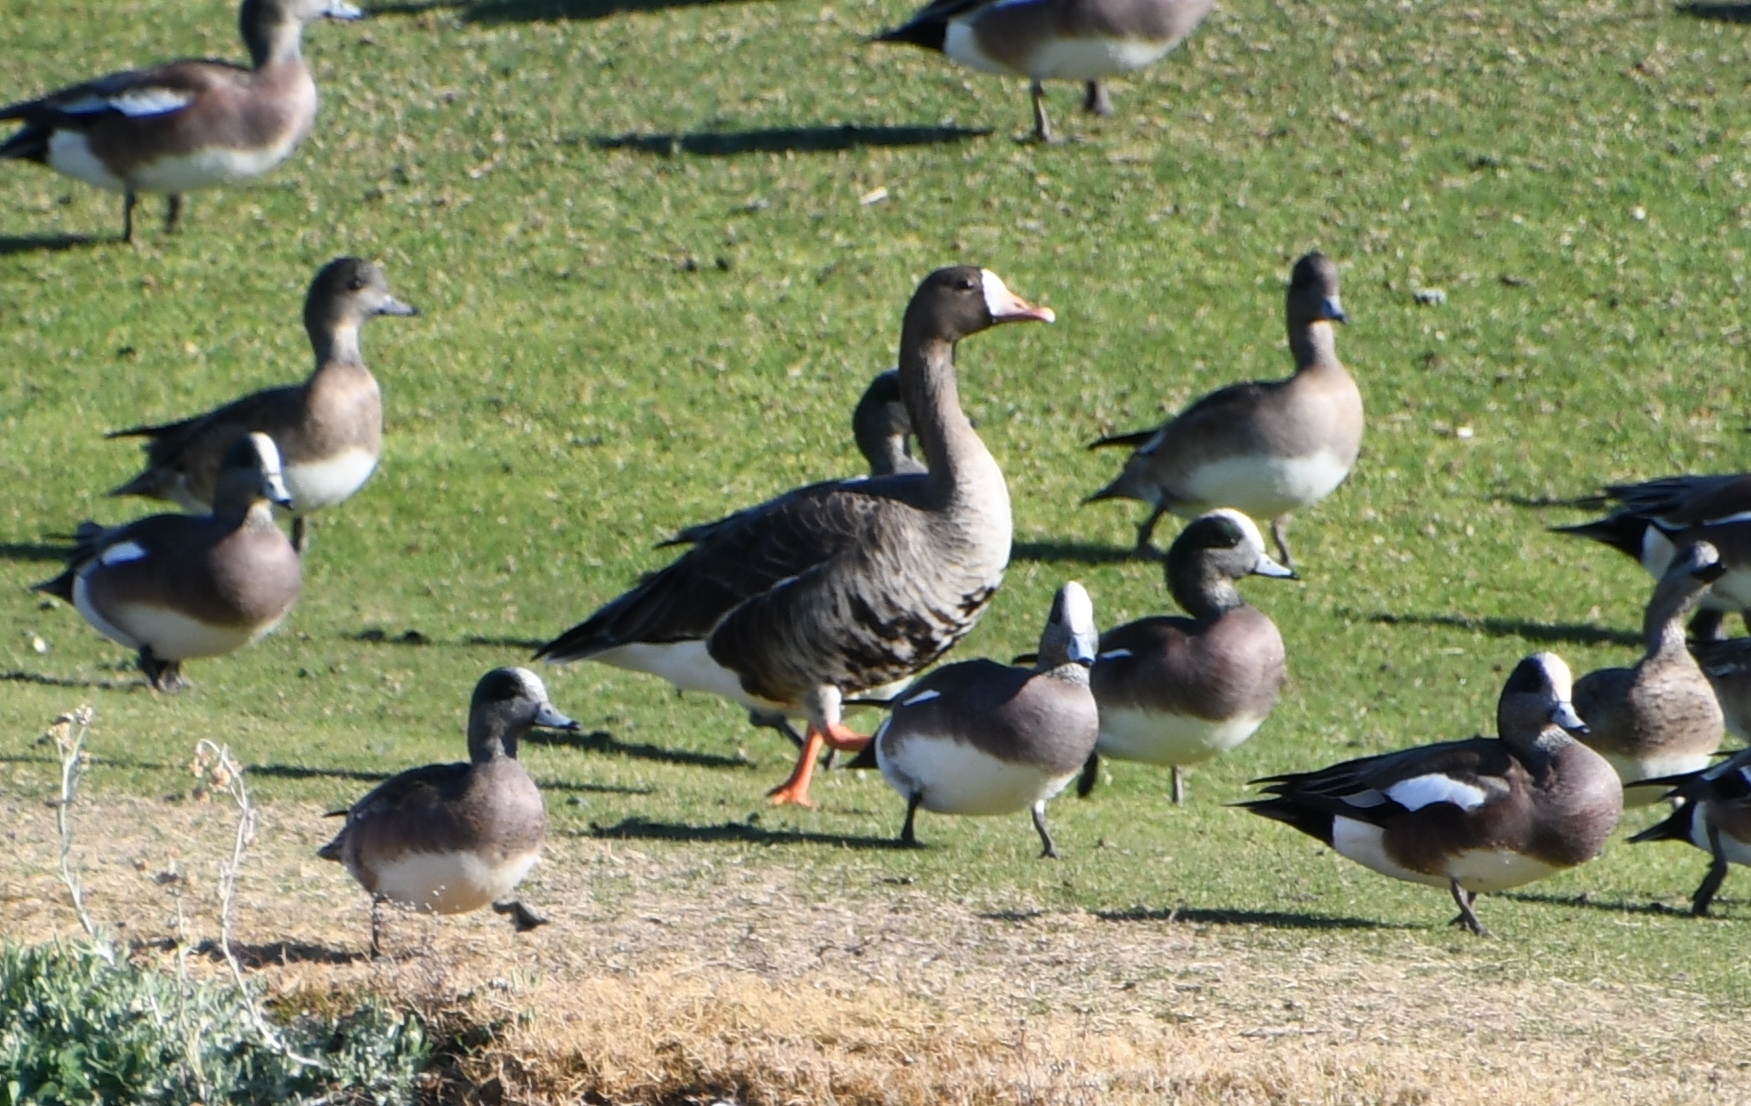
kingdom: Animalia
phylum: Chordata
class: Aves
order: Anseriformes
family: Anatidae
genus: Anser
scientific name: Anser albifrons
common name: Greater white-fronted goose
